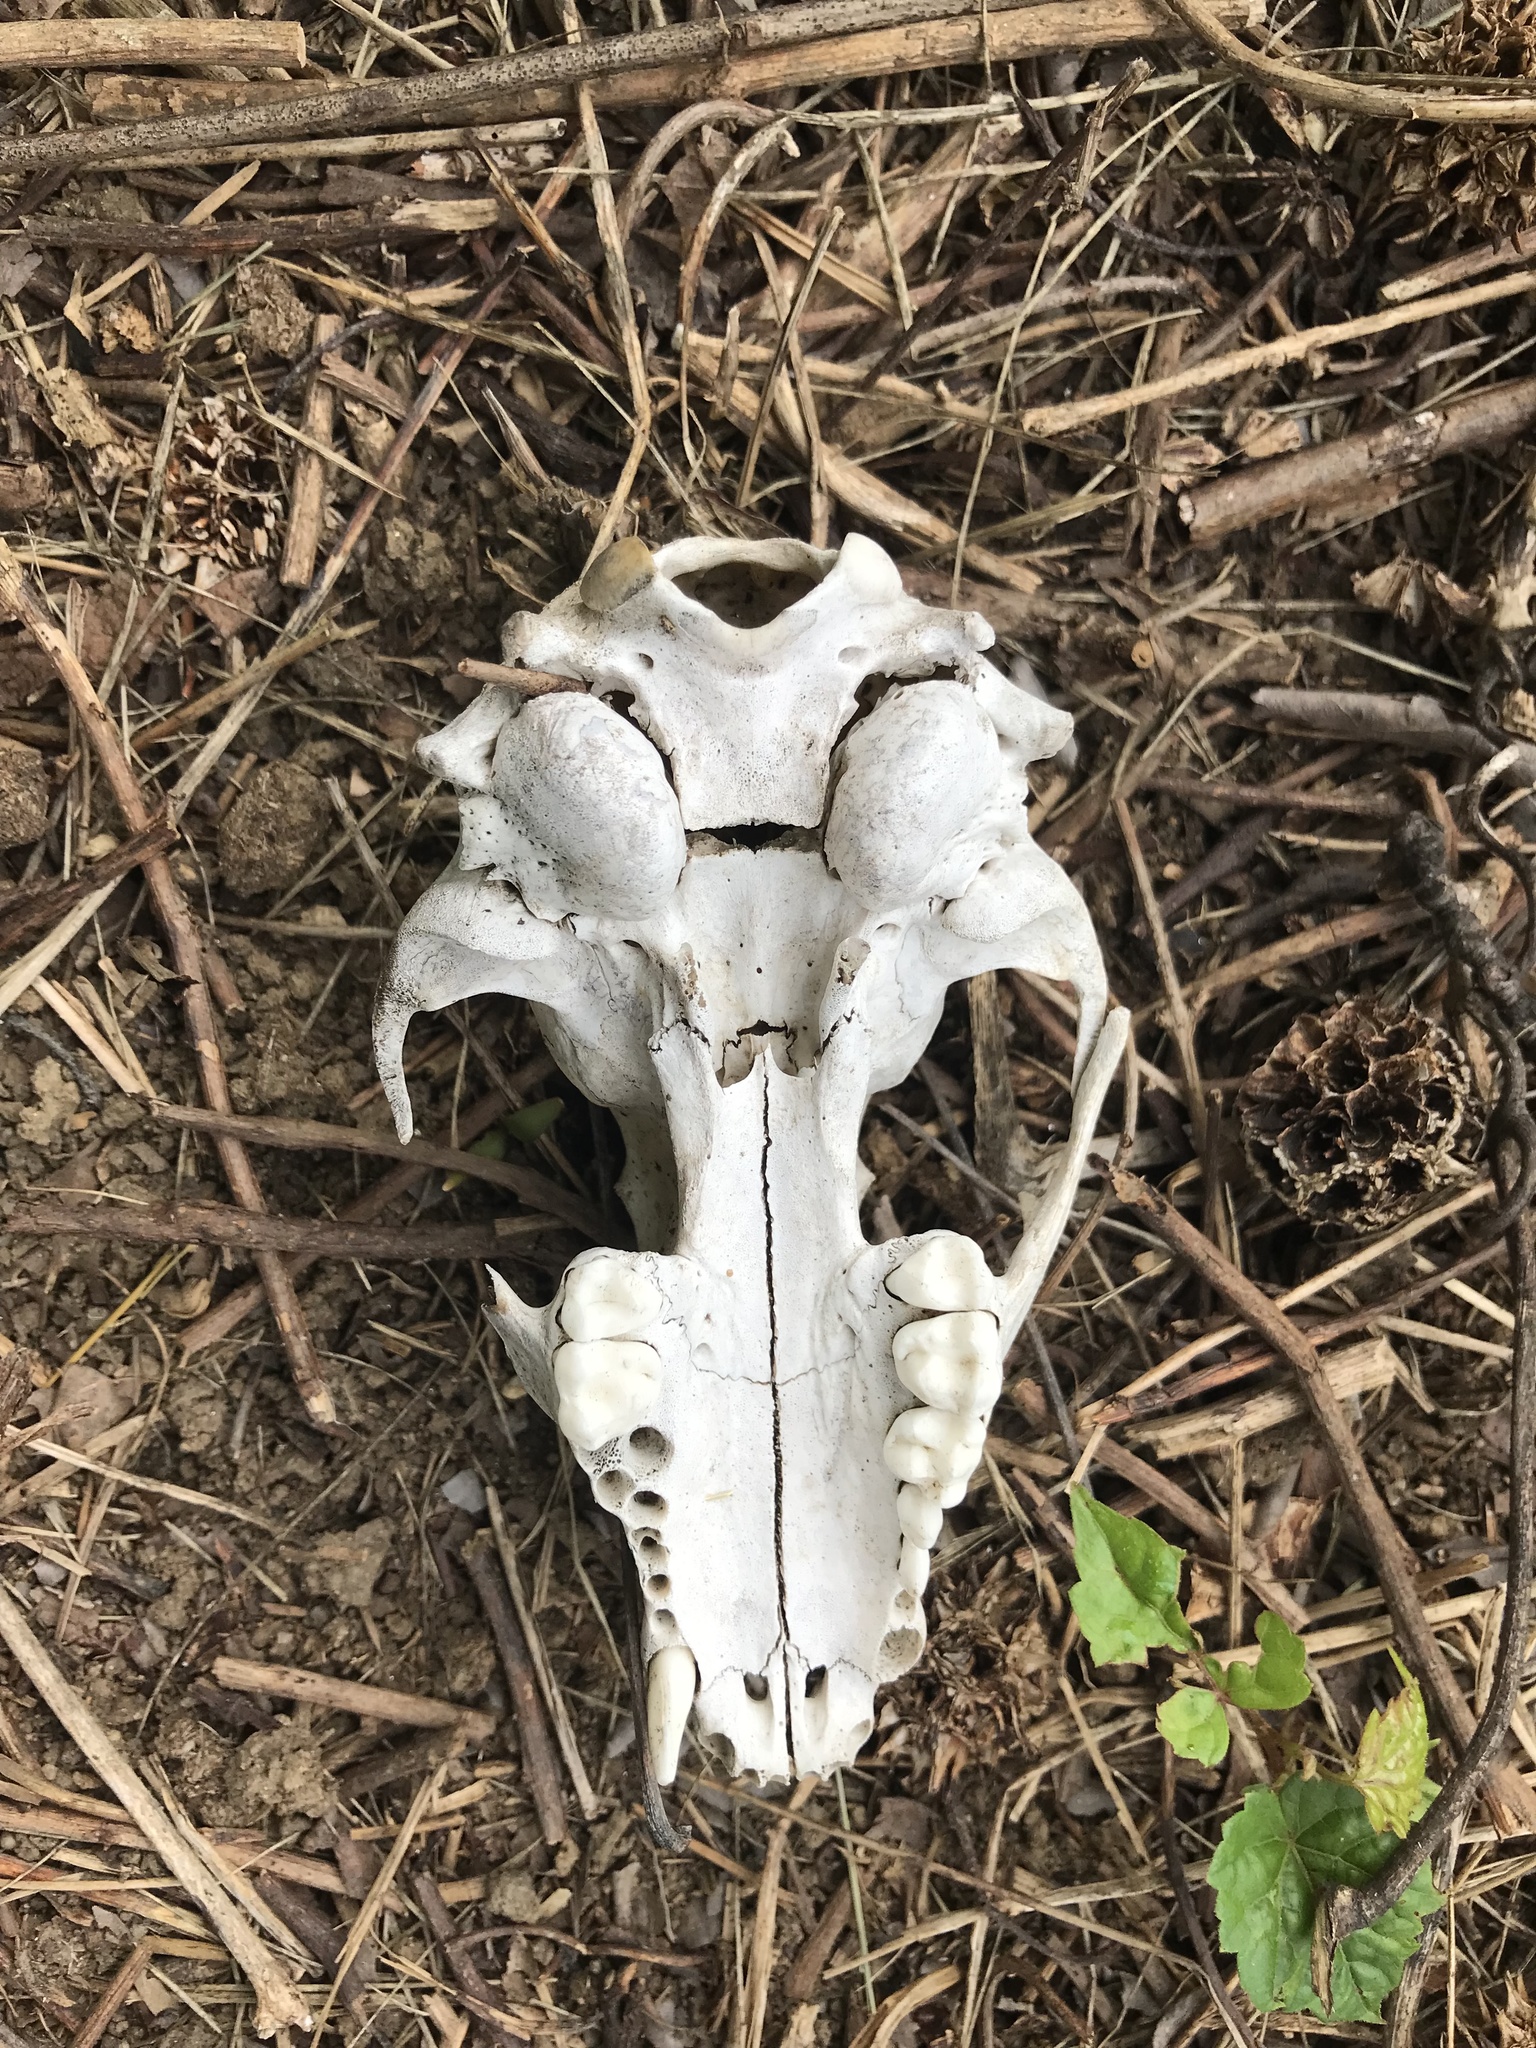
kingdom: Animalia
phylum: Chordata
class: Mammalia
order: Carnivora
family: Procyonidae
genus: Procyon
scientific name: Procyon lotor
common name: Raccoon
